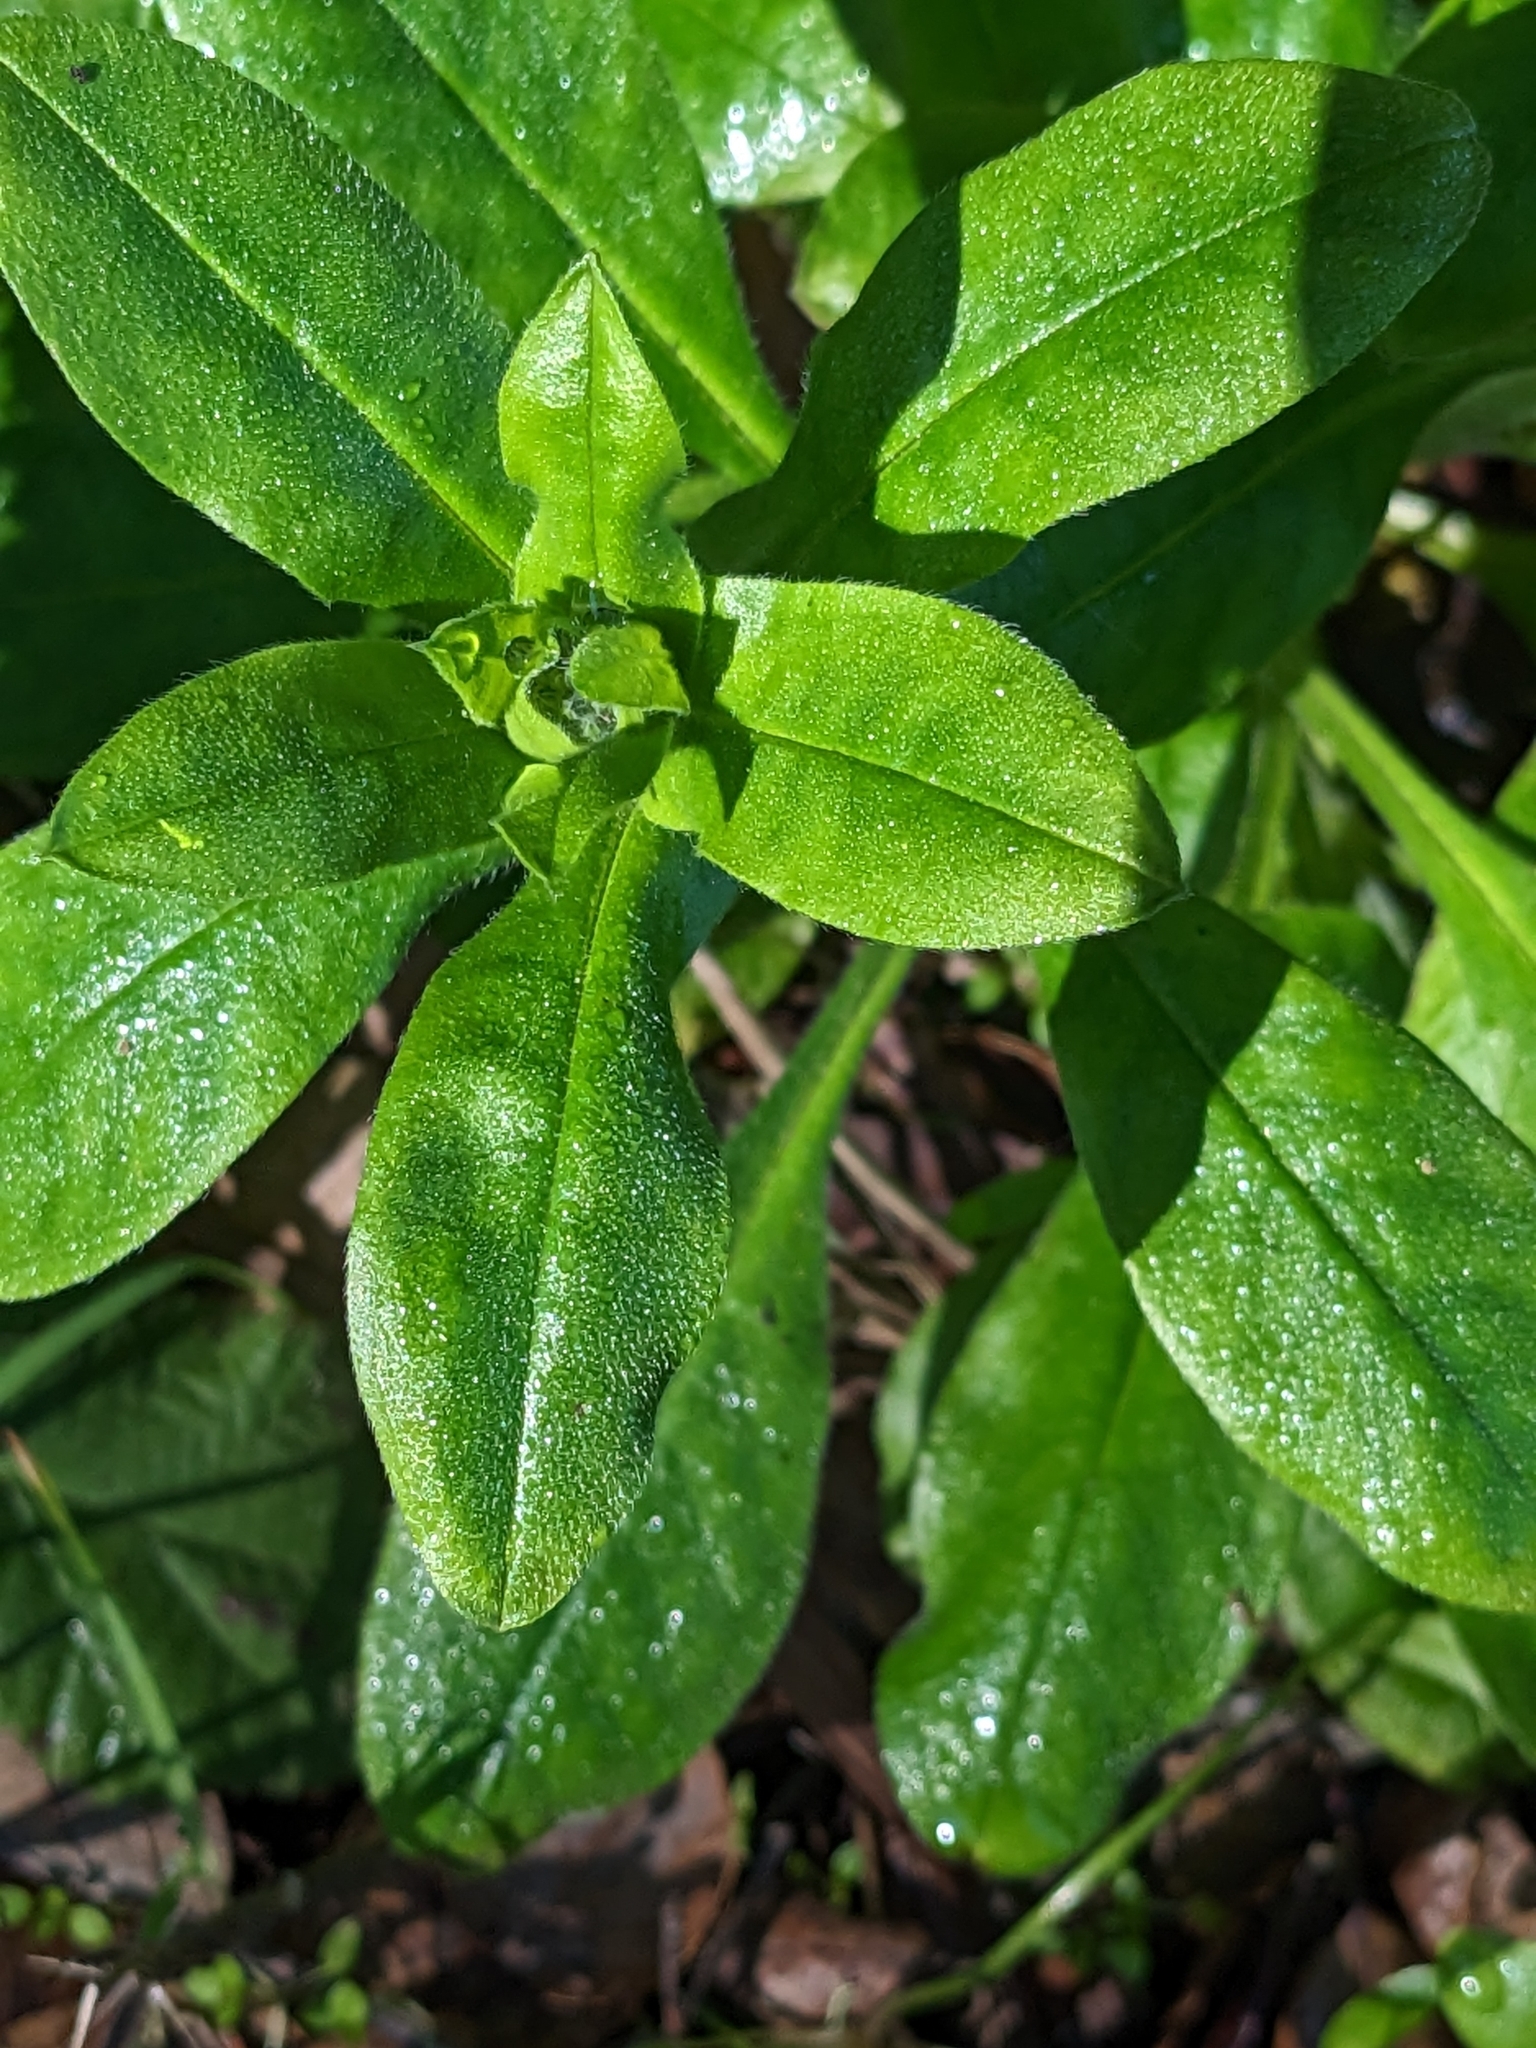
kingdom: Plantae
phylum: Tracheophyta
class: Magnoliopsida
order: Boraginales
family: Boraginaceae
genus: Myosotis
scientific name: Myosotis latifolia
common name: Broadleaf forget-me-not
